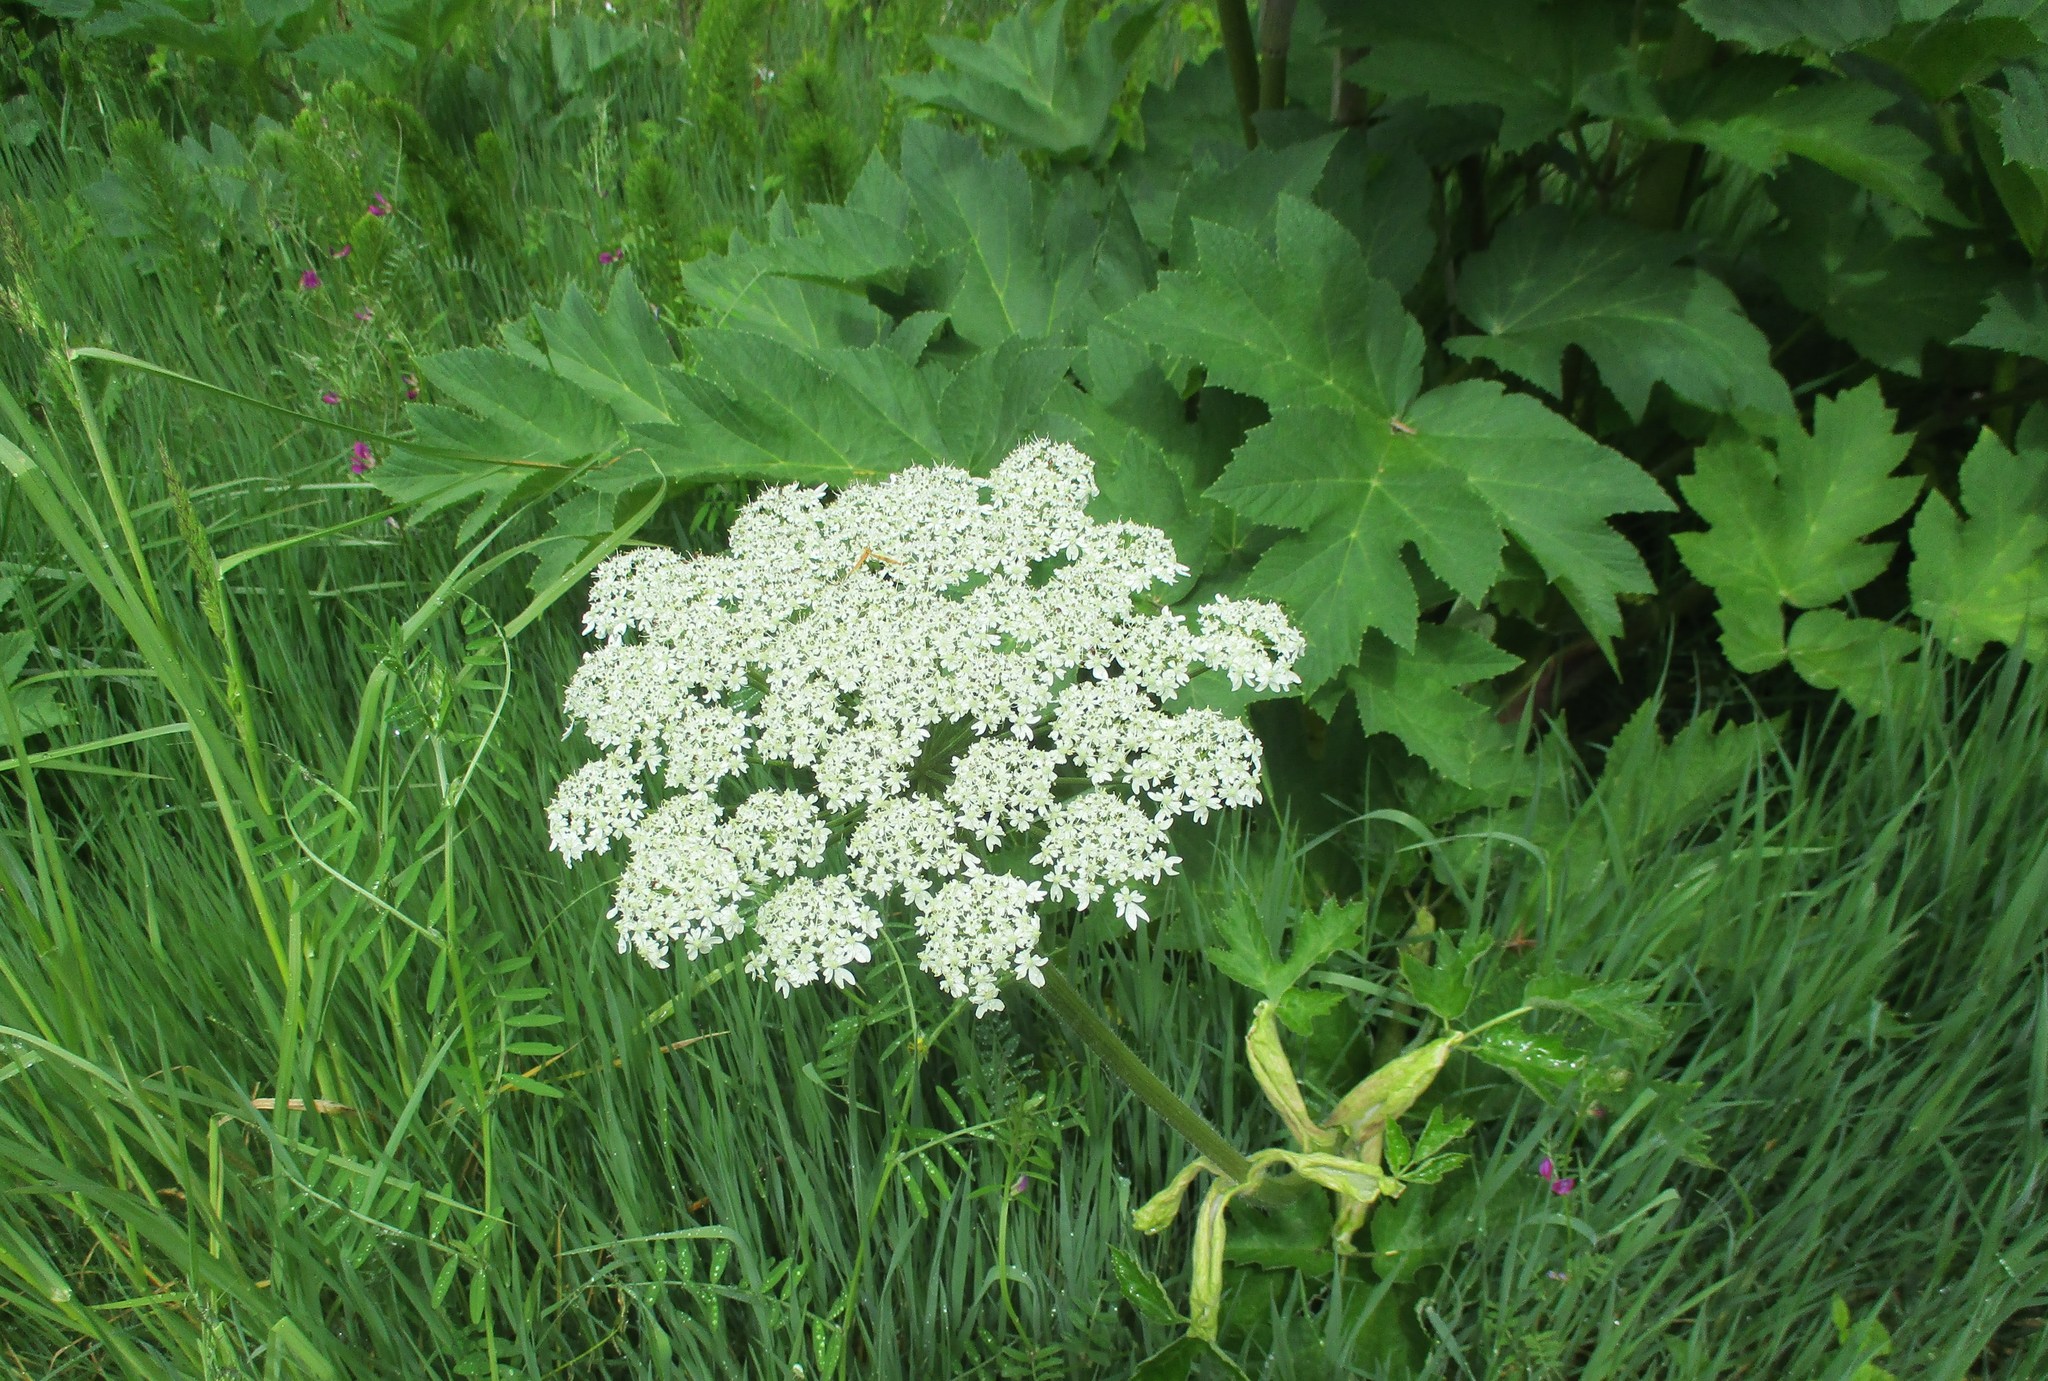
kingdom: Plantae
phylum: Tracheophyta
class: Magnoliopsida
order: Apiales
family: Apiaceae
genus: Heracleum
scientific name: Heracleum maximum
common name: American cow parsnip
